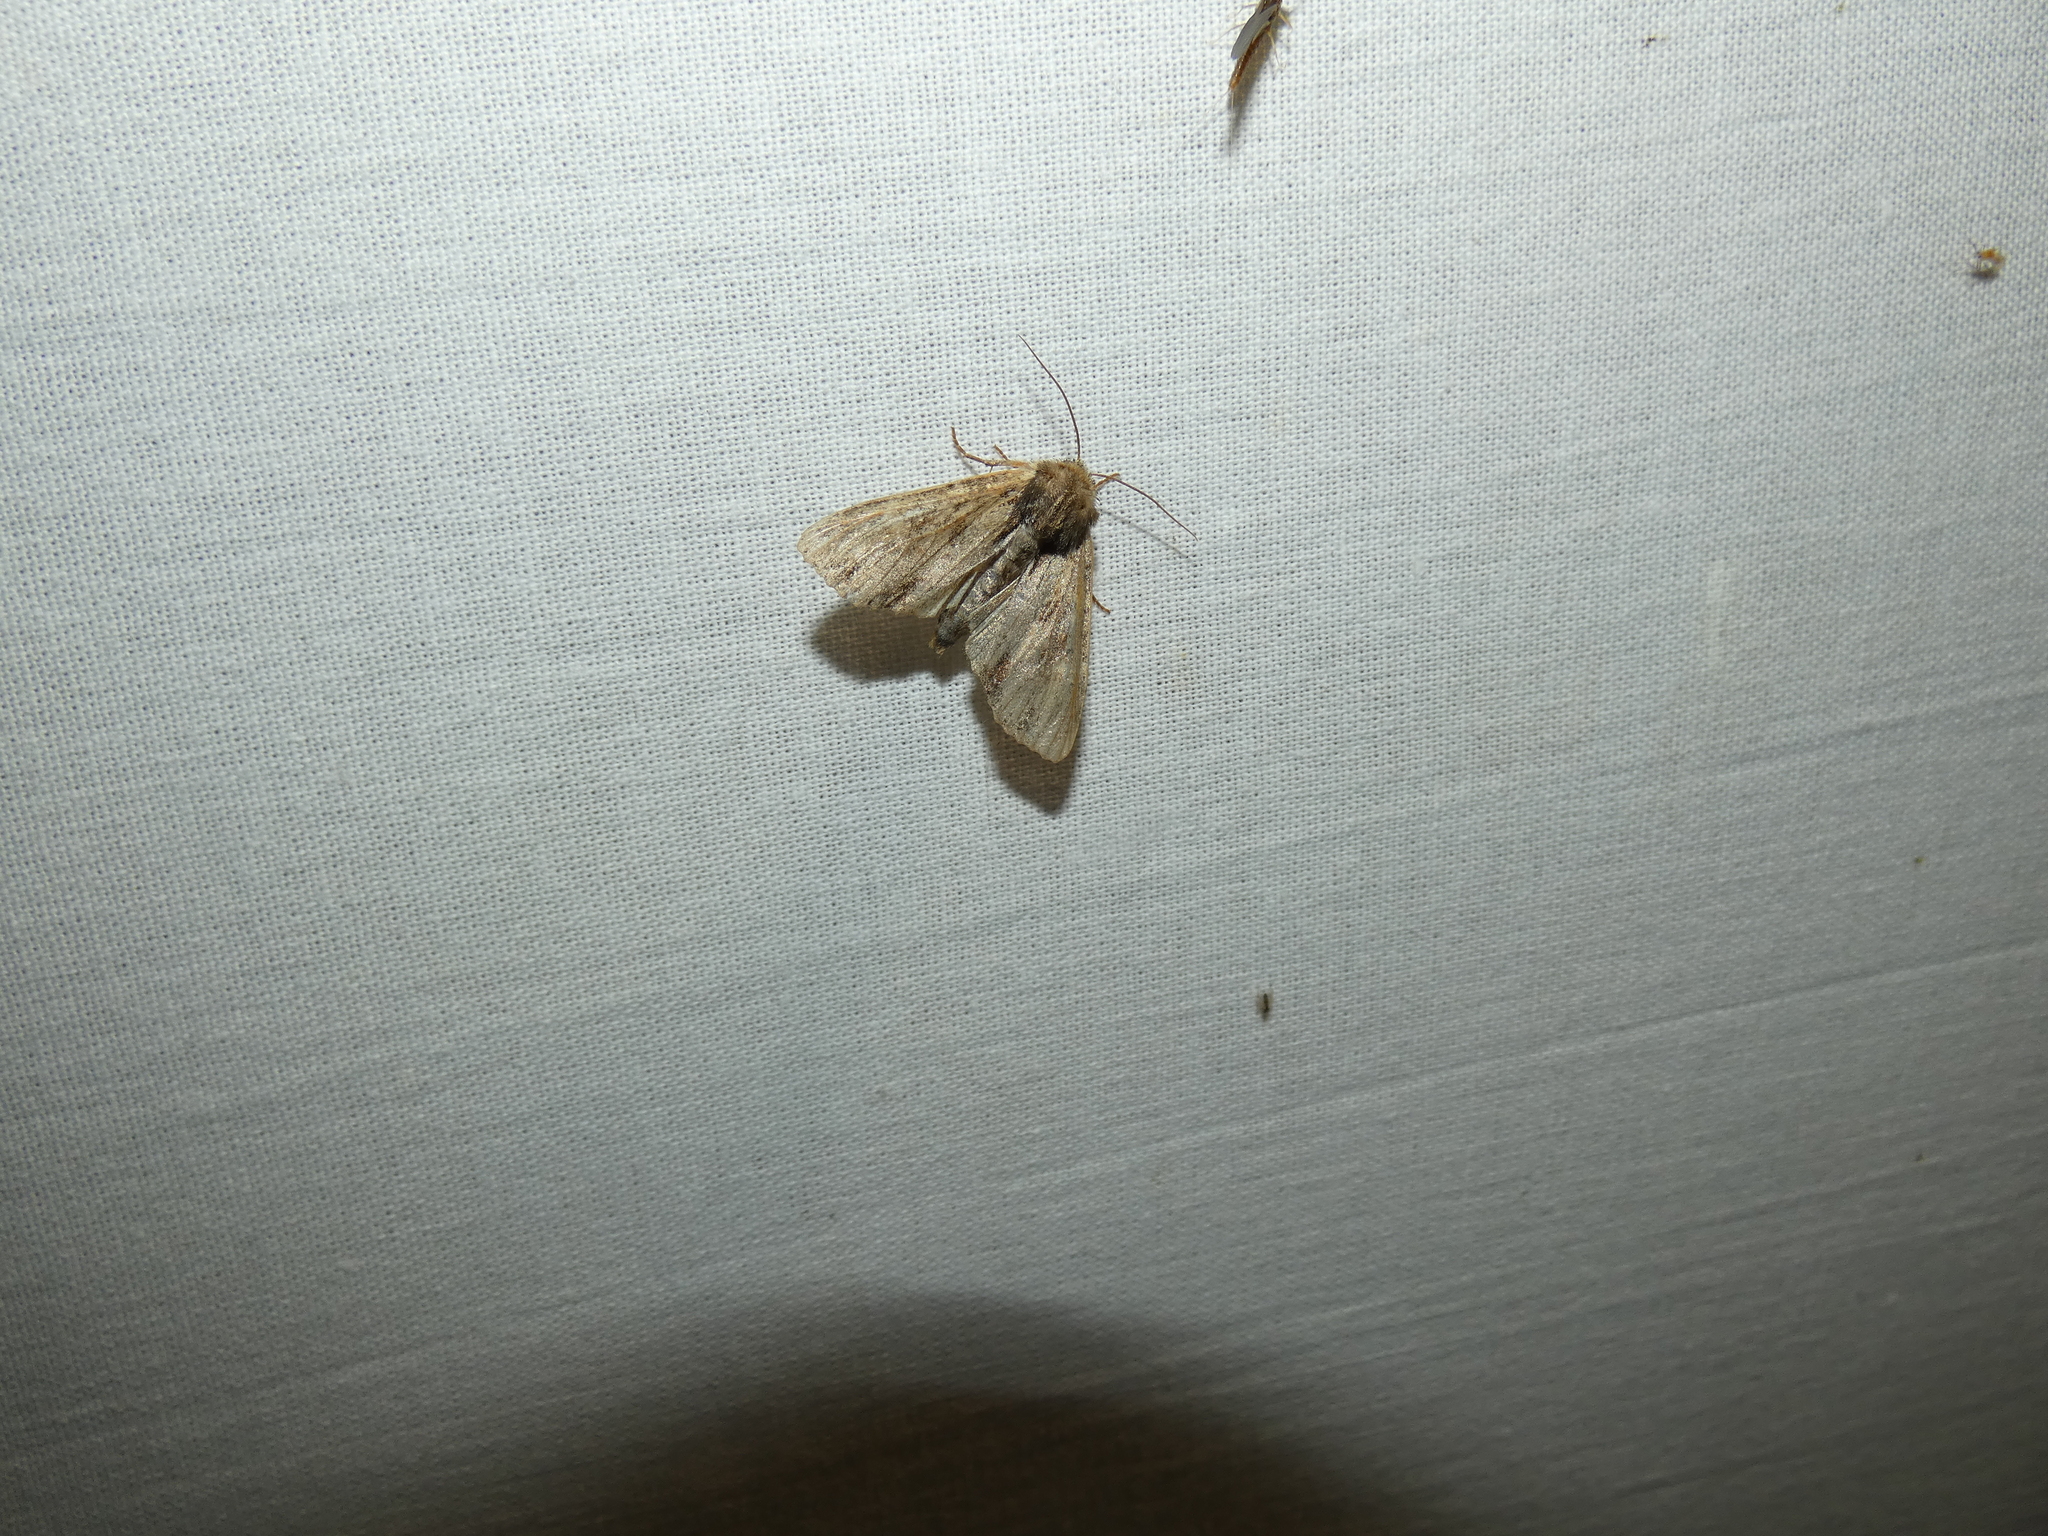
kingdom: Animalia
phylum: Arthropoda
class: Insecta
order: Lepidoptera
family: Noctuidae
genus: Apamea
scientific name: Apamea crenata
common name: Clouded-bordered brindle
